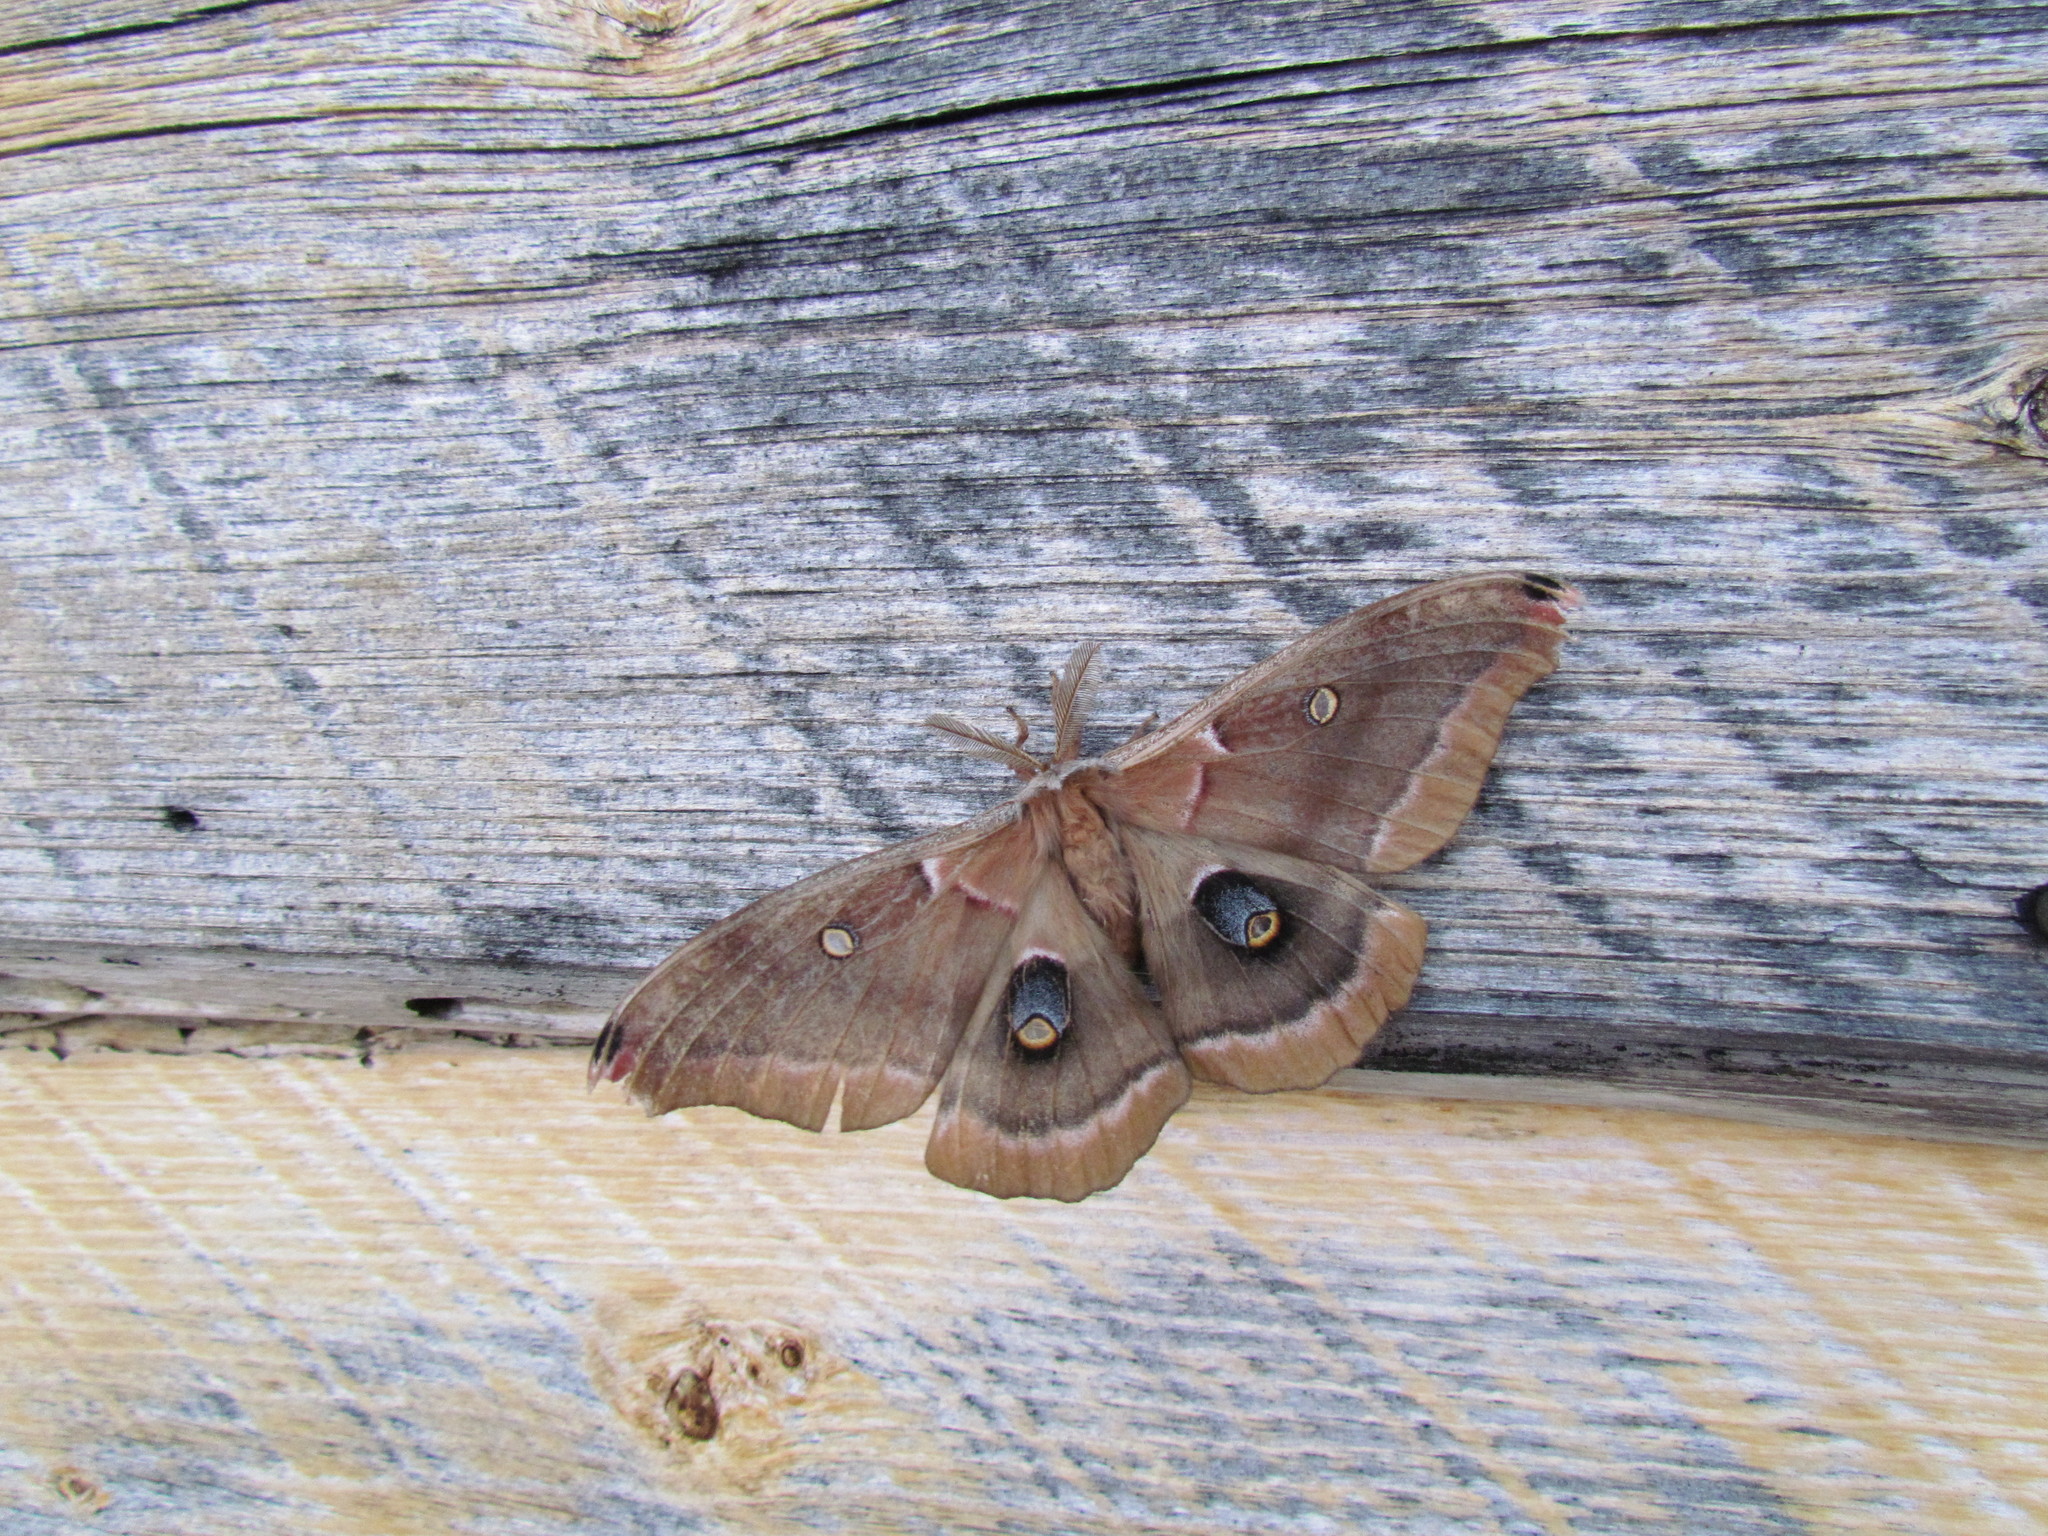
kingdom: Animalia
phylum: Arthropoda
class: Insecta
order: Lepidoptera
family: Saturniidae
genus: Antheraea
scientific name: Antheraea polyphemus
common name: Polyphemus moth
